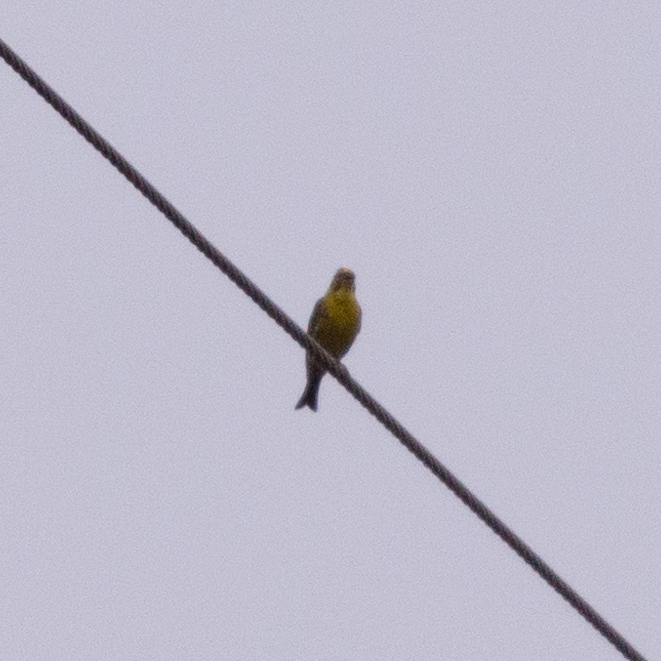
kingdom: Animalia
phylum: Chordata
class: Aves
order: Passeriformes
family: Fringillidae
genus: Serinus
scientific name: Serinus serinus
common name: European serin
